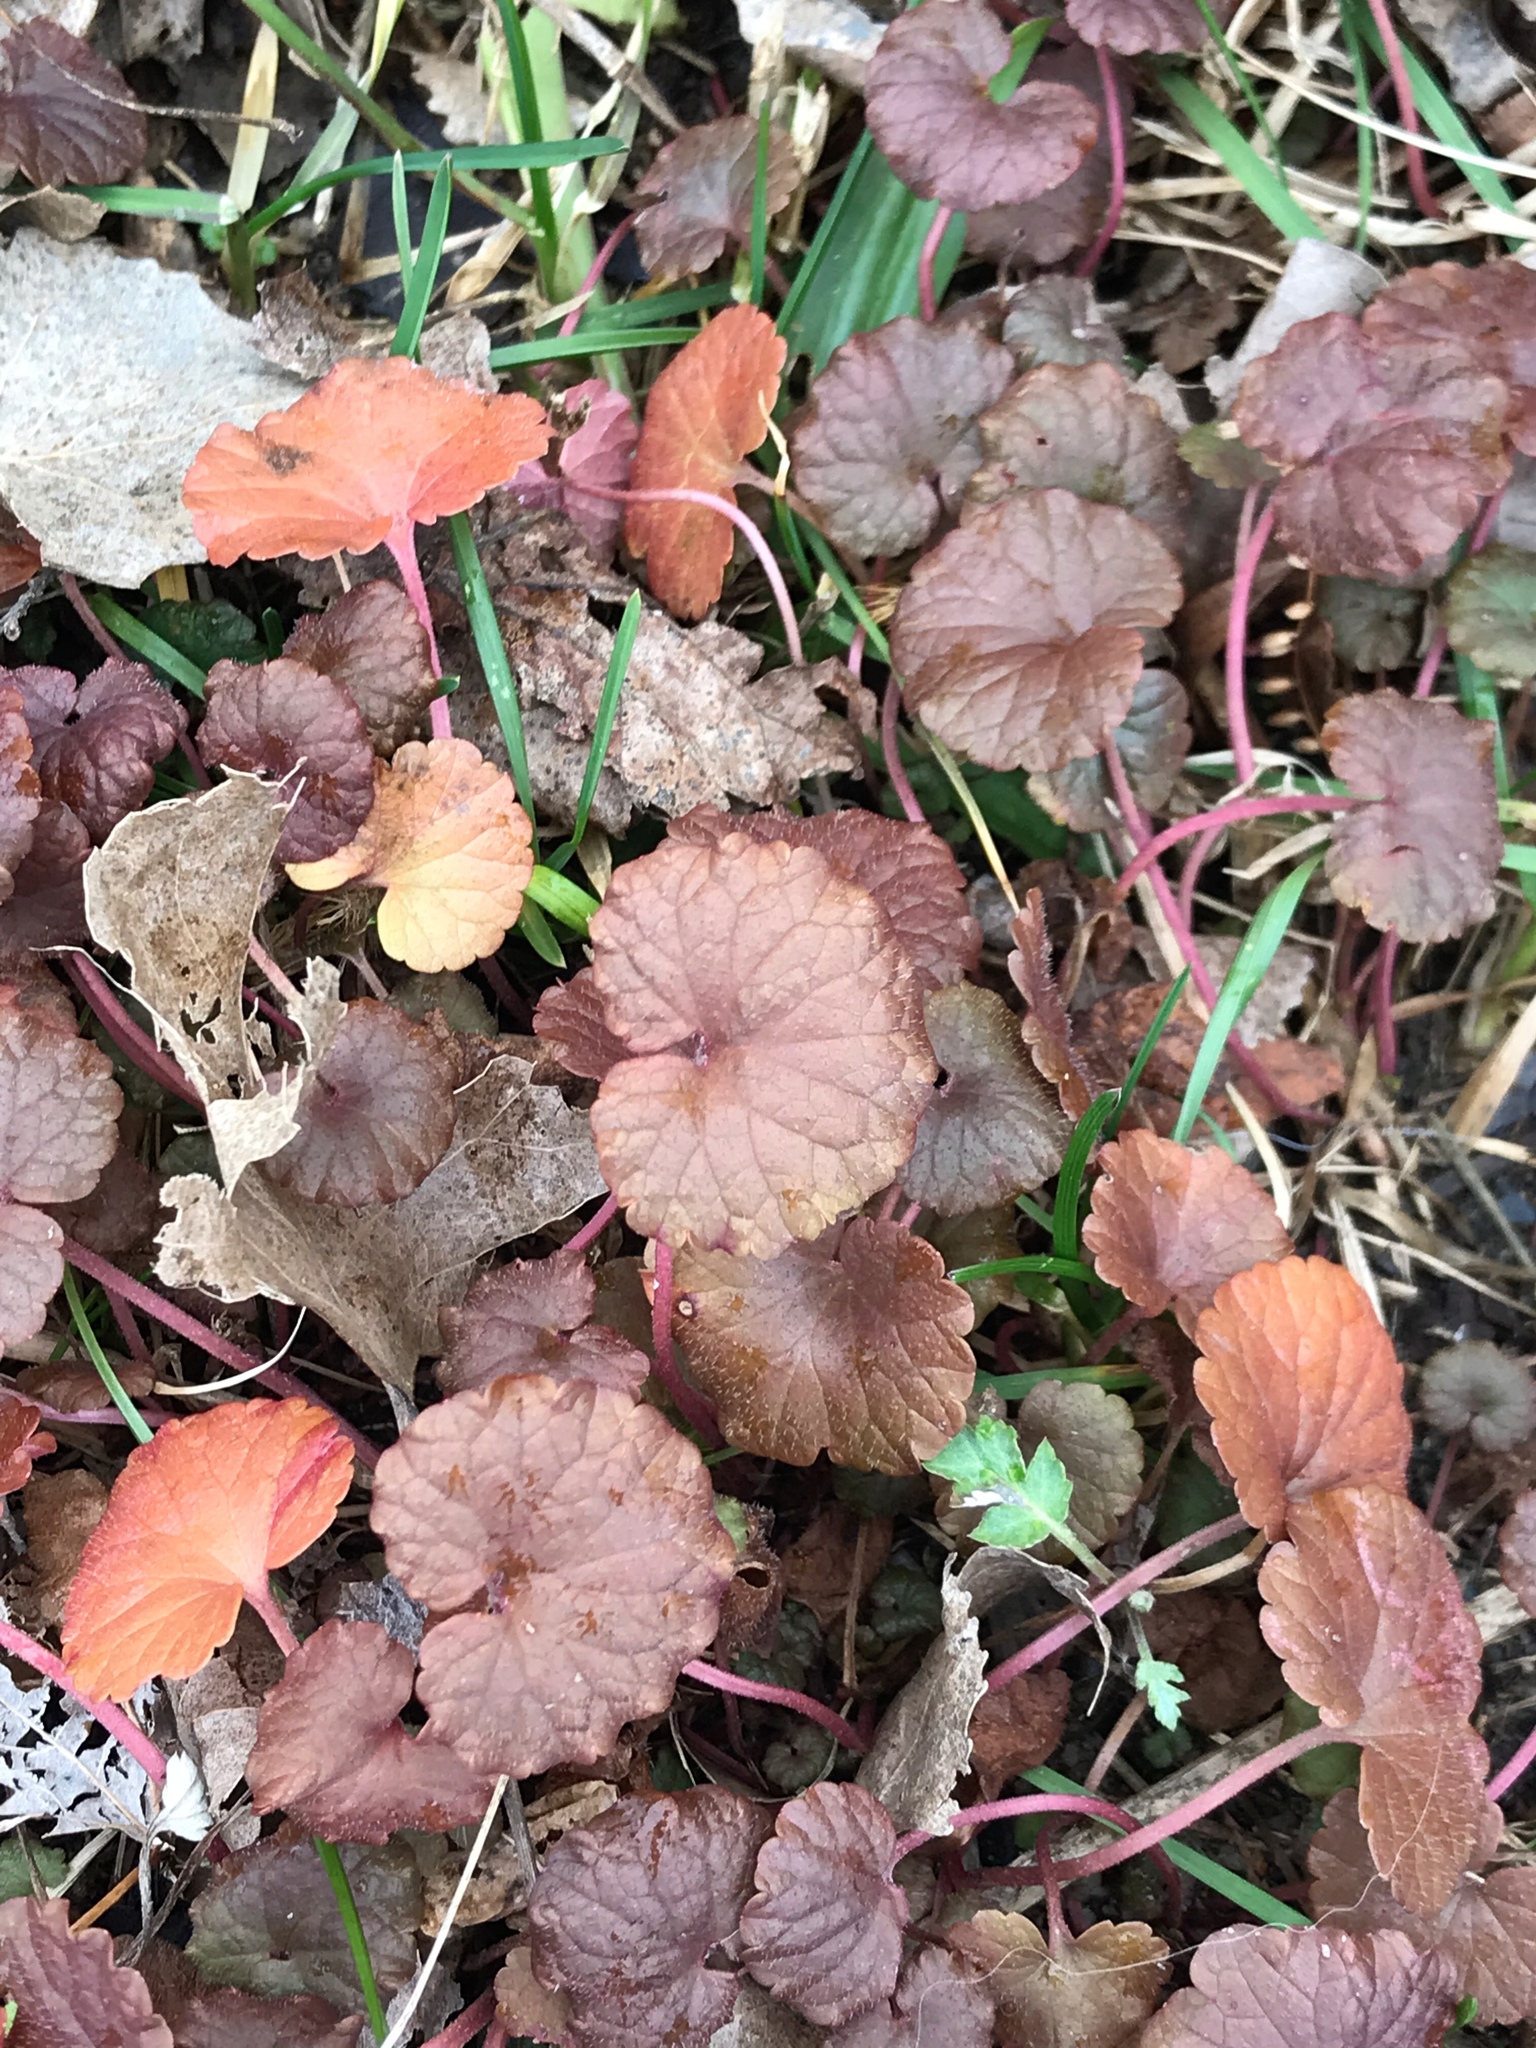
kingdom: Plantae
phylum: Tracheophyta
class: Magnoliopsida
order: Lamiales
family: Lamiaceae
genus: Glechoma
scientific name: Glechoma hederacea
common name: Ground ivy
